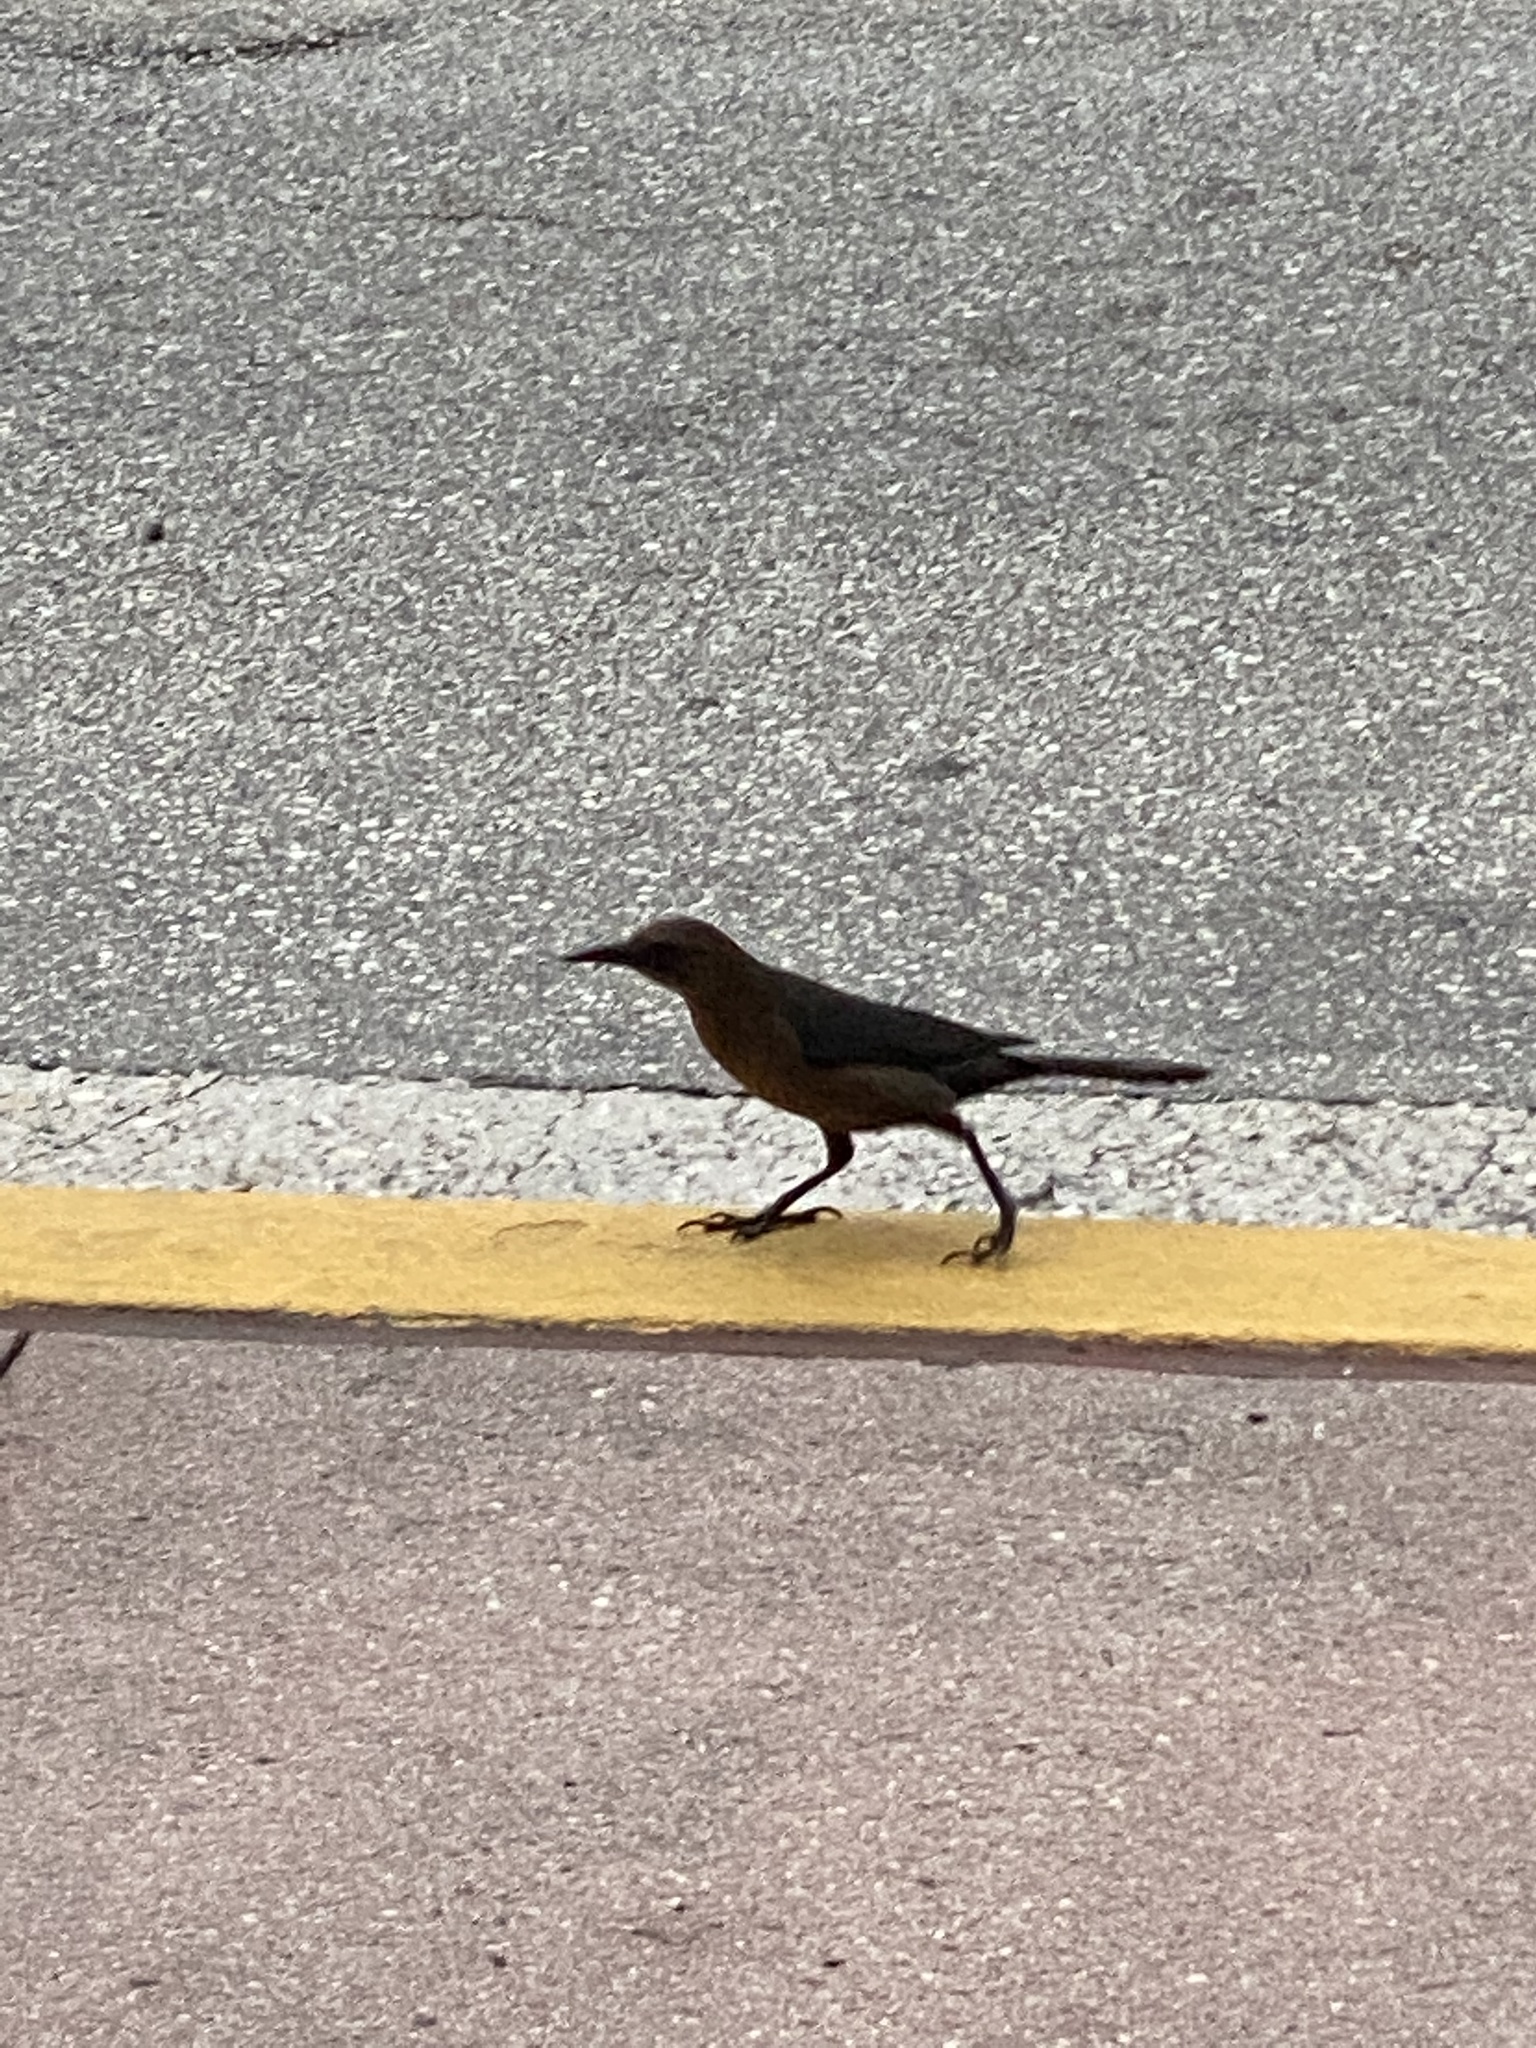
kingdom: Animalia
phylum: Chordata
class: Aves
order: Passeriformes
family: Icteridae
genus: Quiscalus
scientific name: Quiscalus major
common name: Boat-tailed grackle
